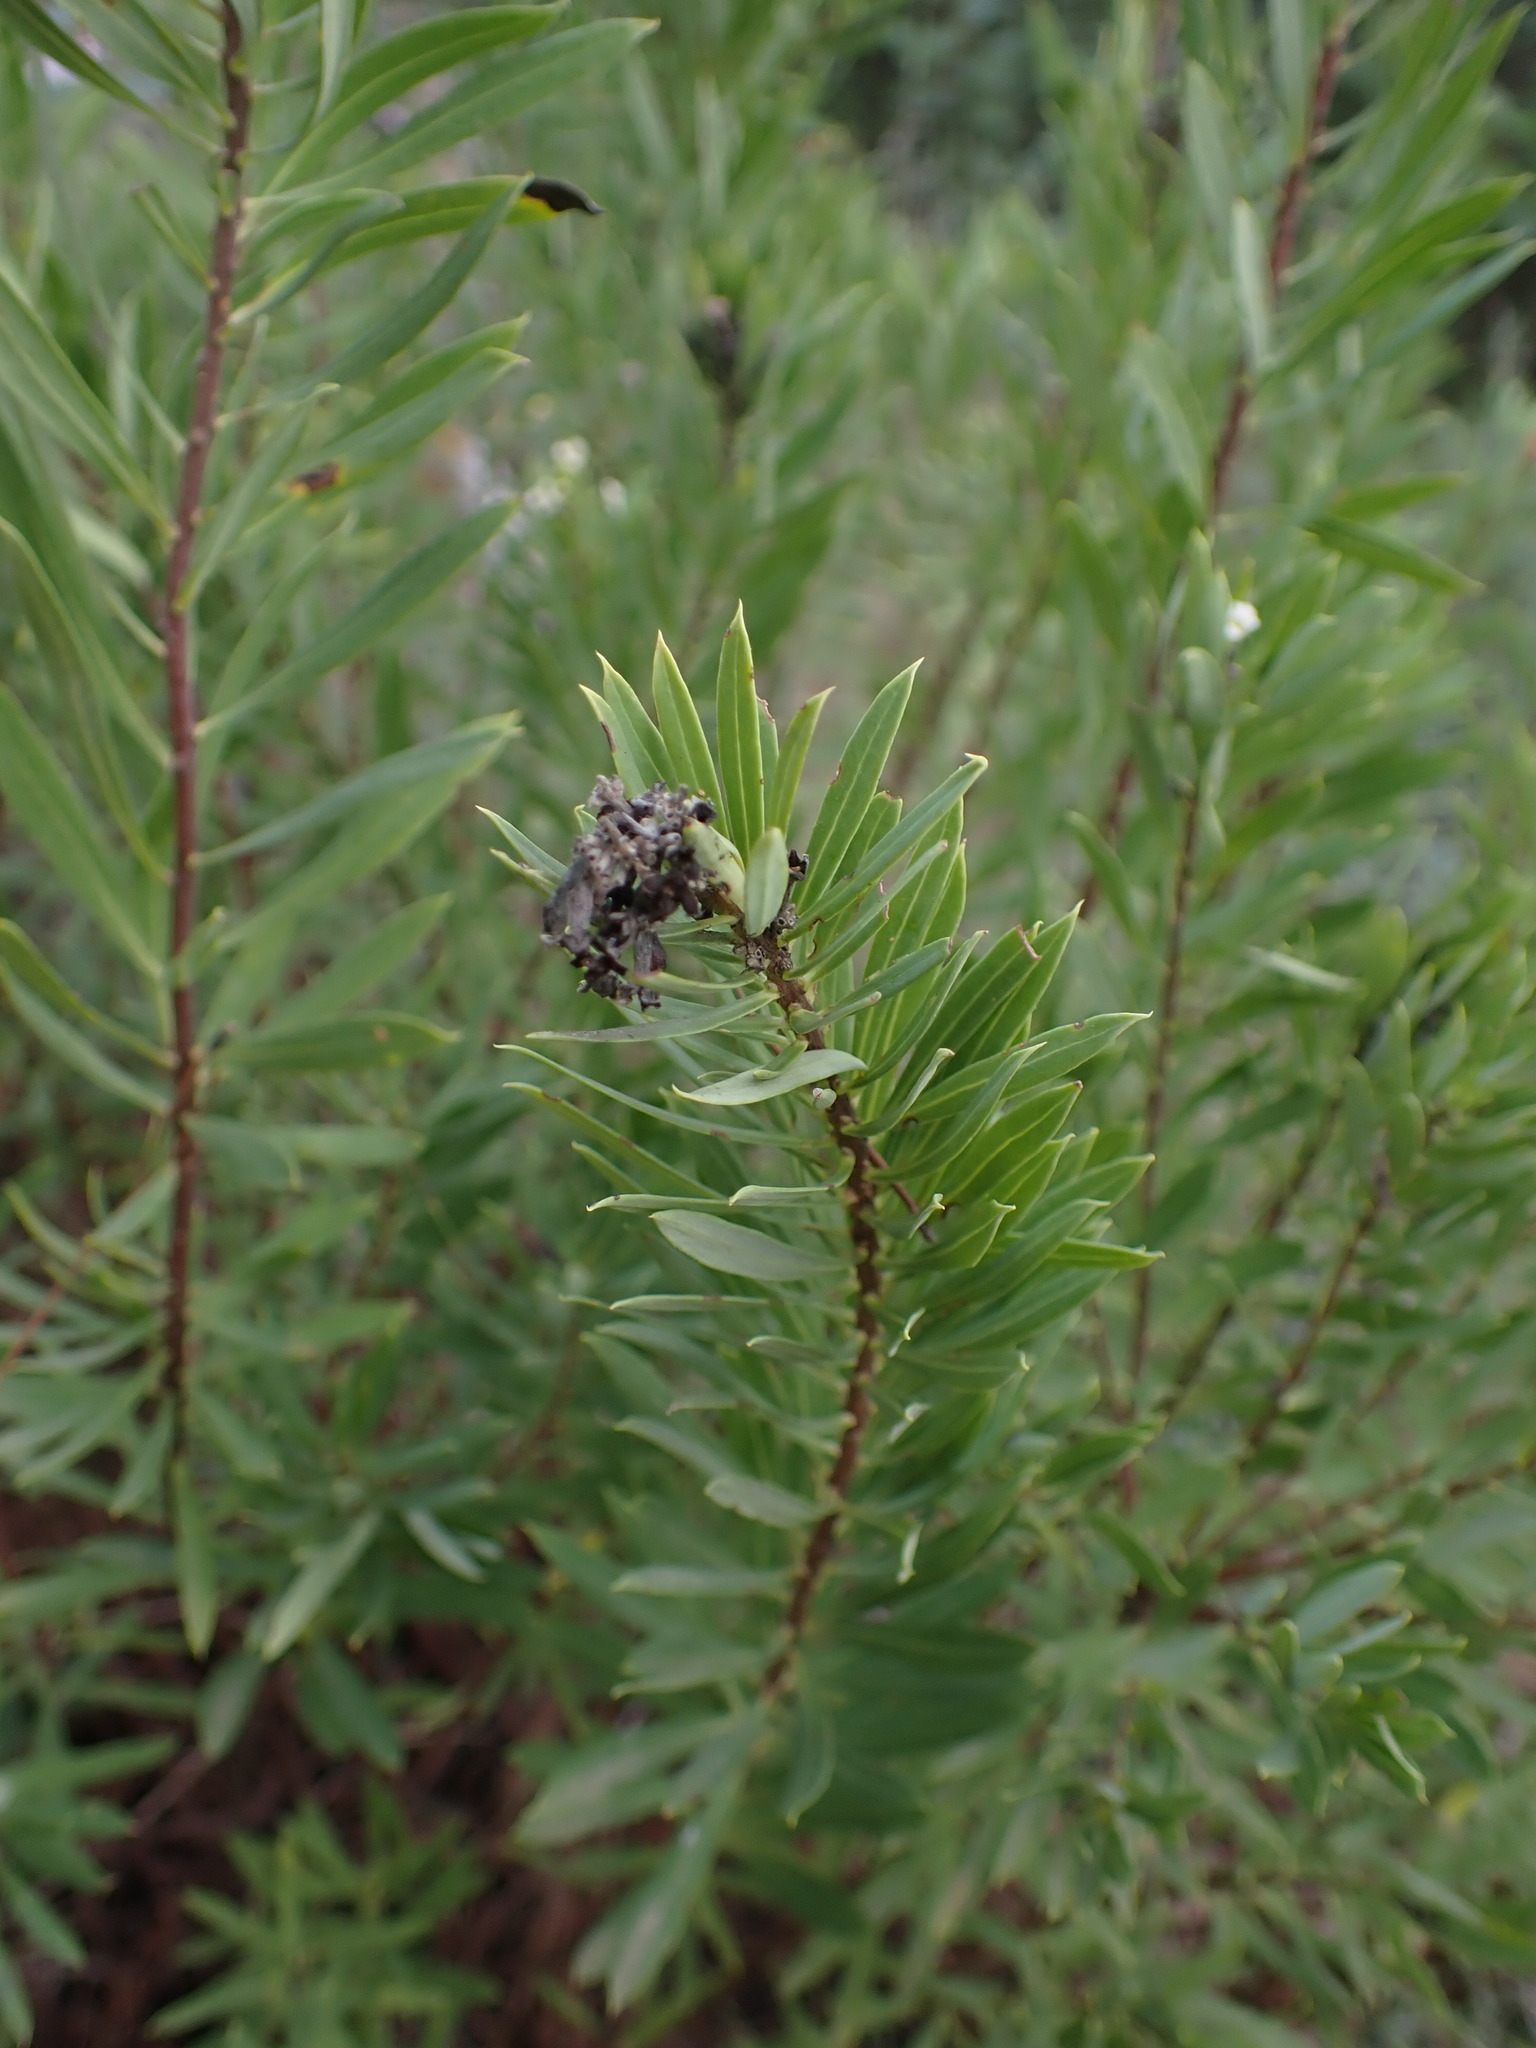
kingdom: Plantae
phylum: Tracheophyta
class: Magnoliopsida
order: Malvales
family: Thymelaeaceae
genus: Daphne
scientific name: Daphne gnidium
